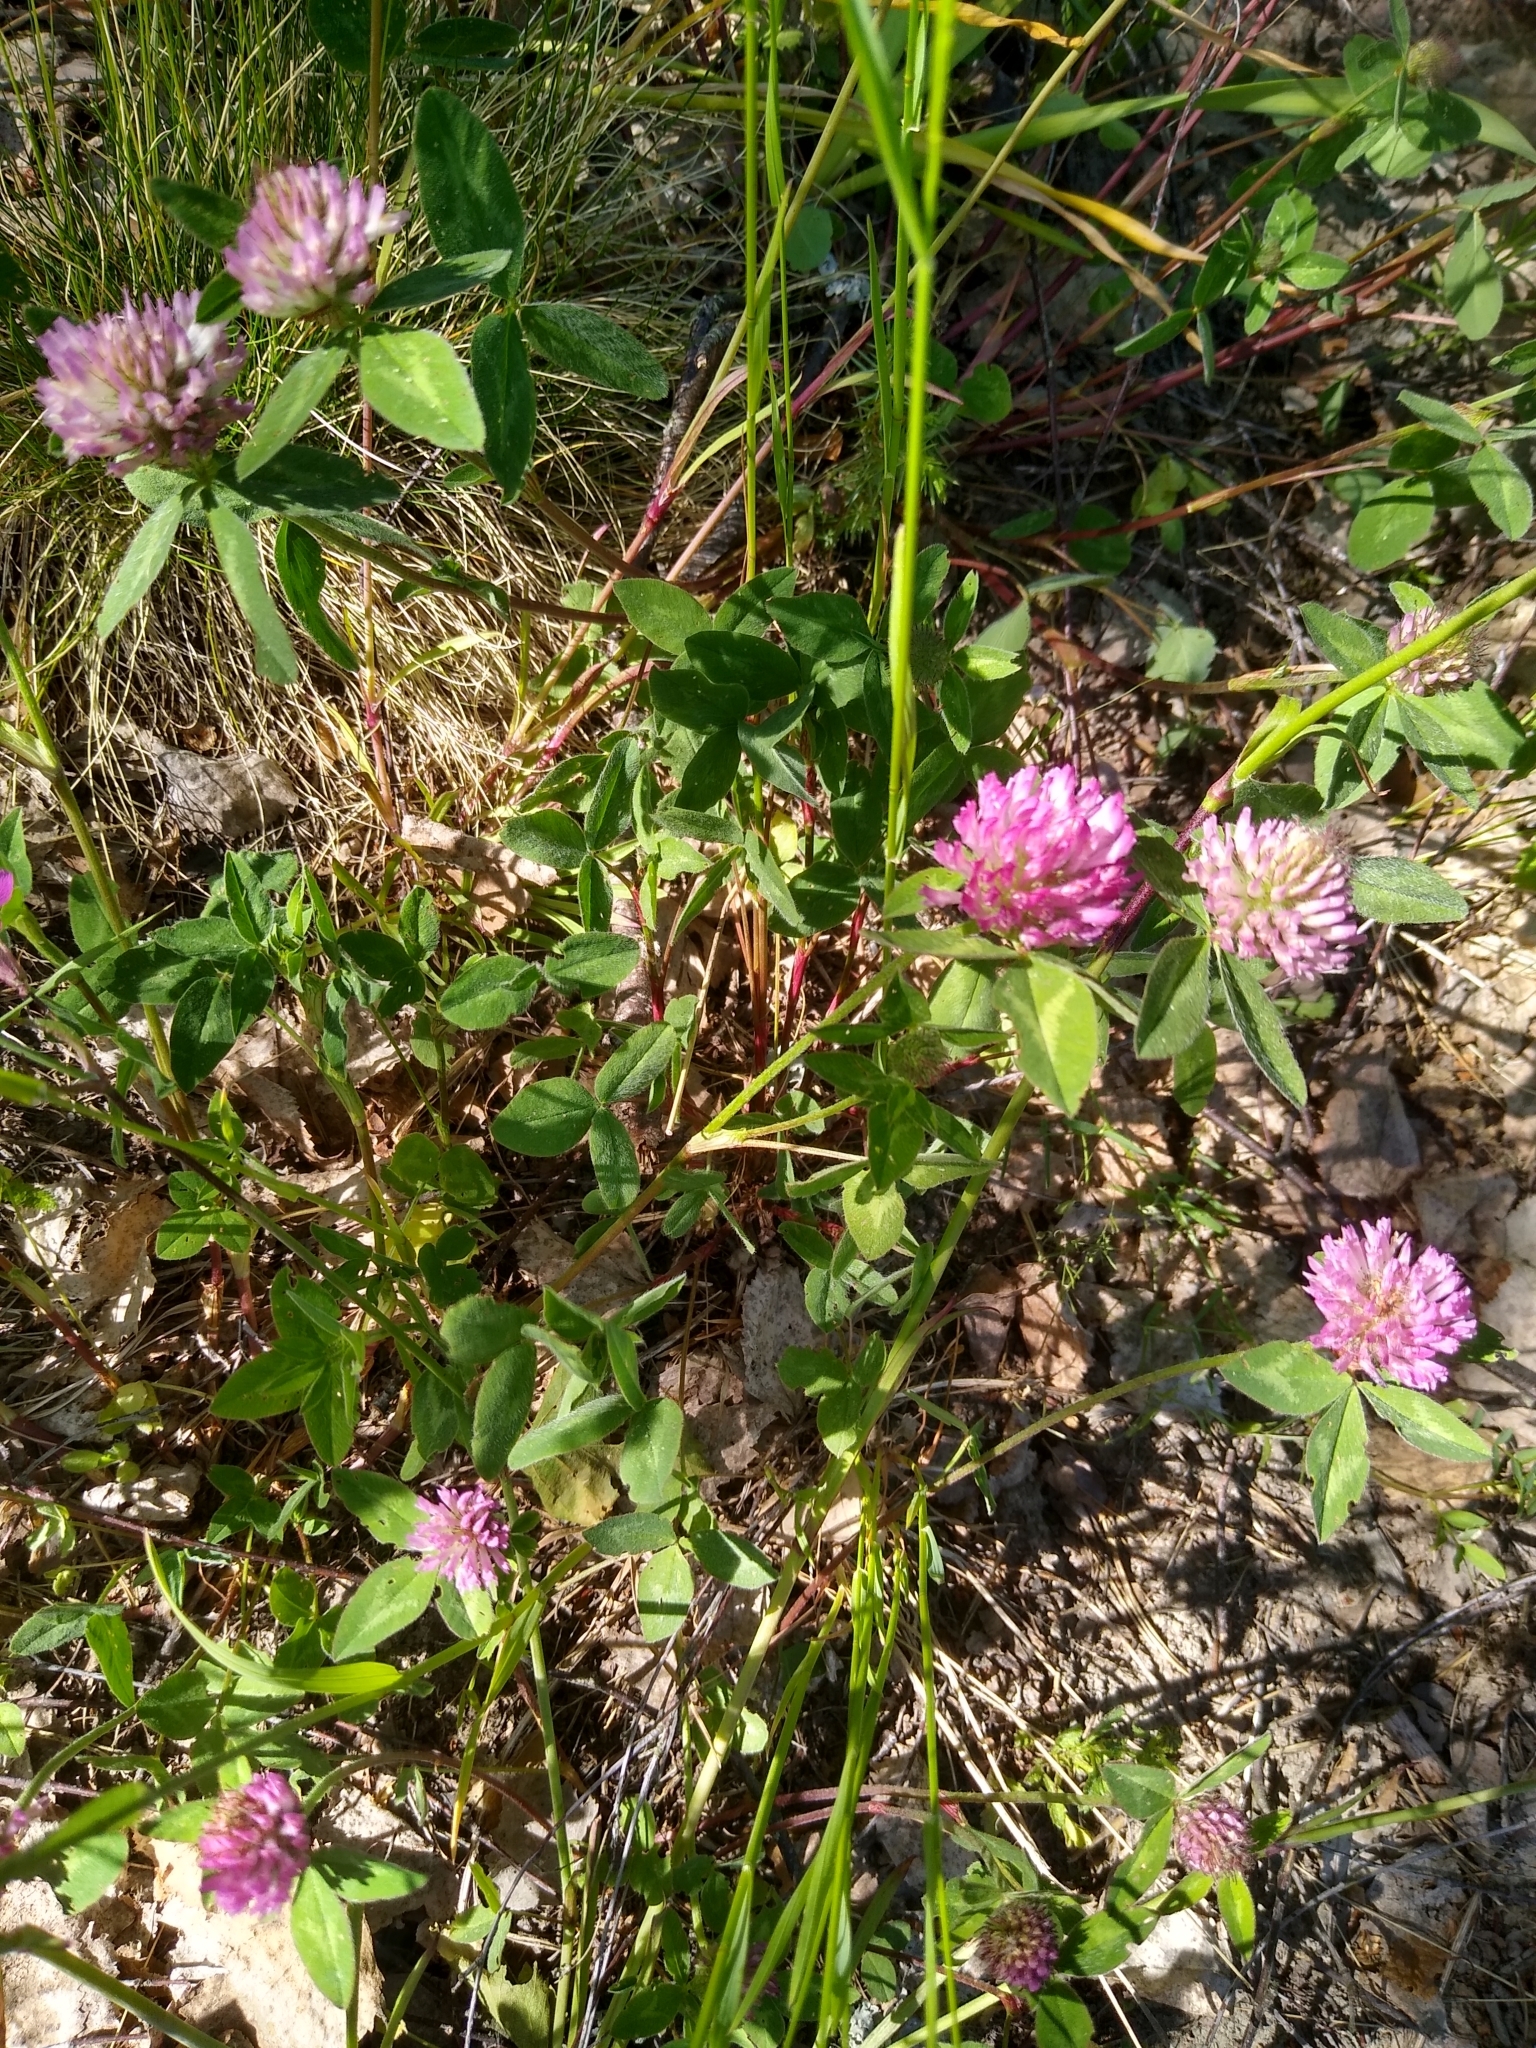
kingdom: Plantae
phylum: Tracheophyta
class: Magnoliopsida
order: Fabales
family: Fabaceae
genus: Trifolium
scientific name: Trifolium pratense
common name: Red clover
